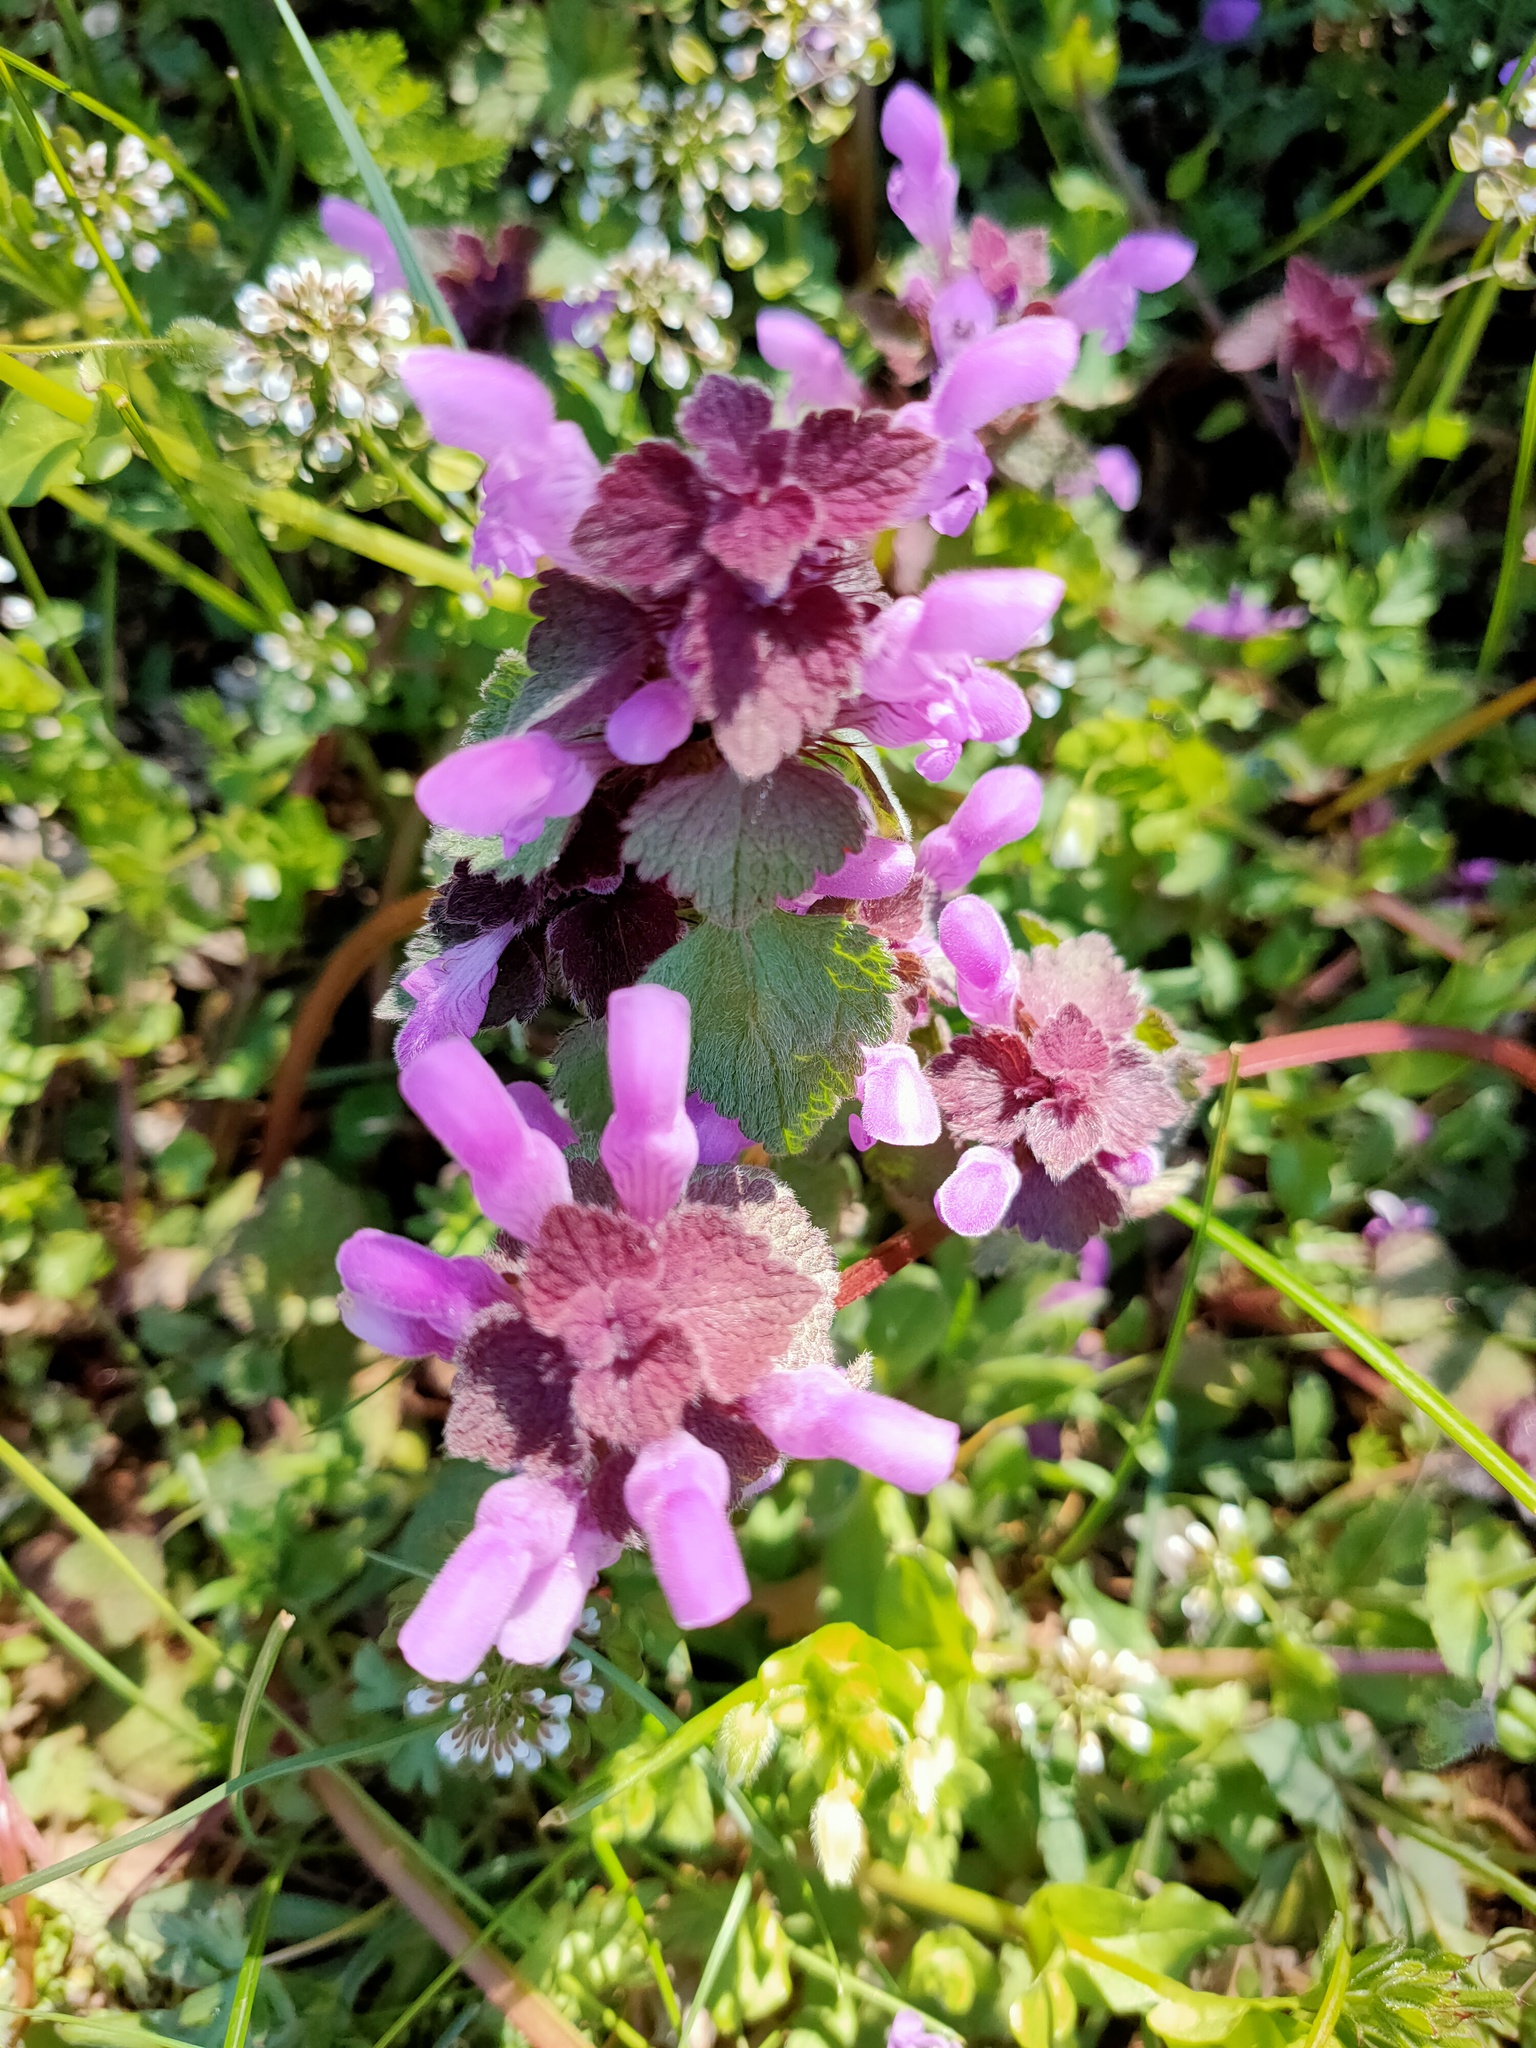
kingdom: Plantae
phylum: Tracheophyta
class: Magnoliopsida
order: Lamiales
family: Lamiaceae
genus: Lamium
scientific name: Lamium purpureum
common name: Red dead-nettle
